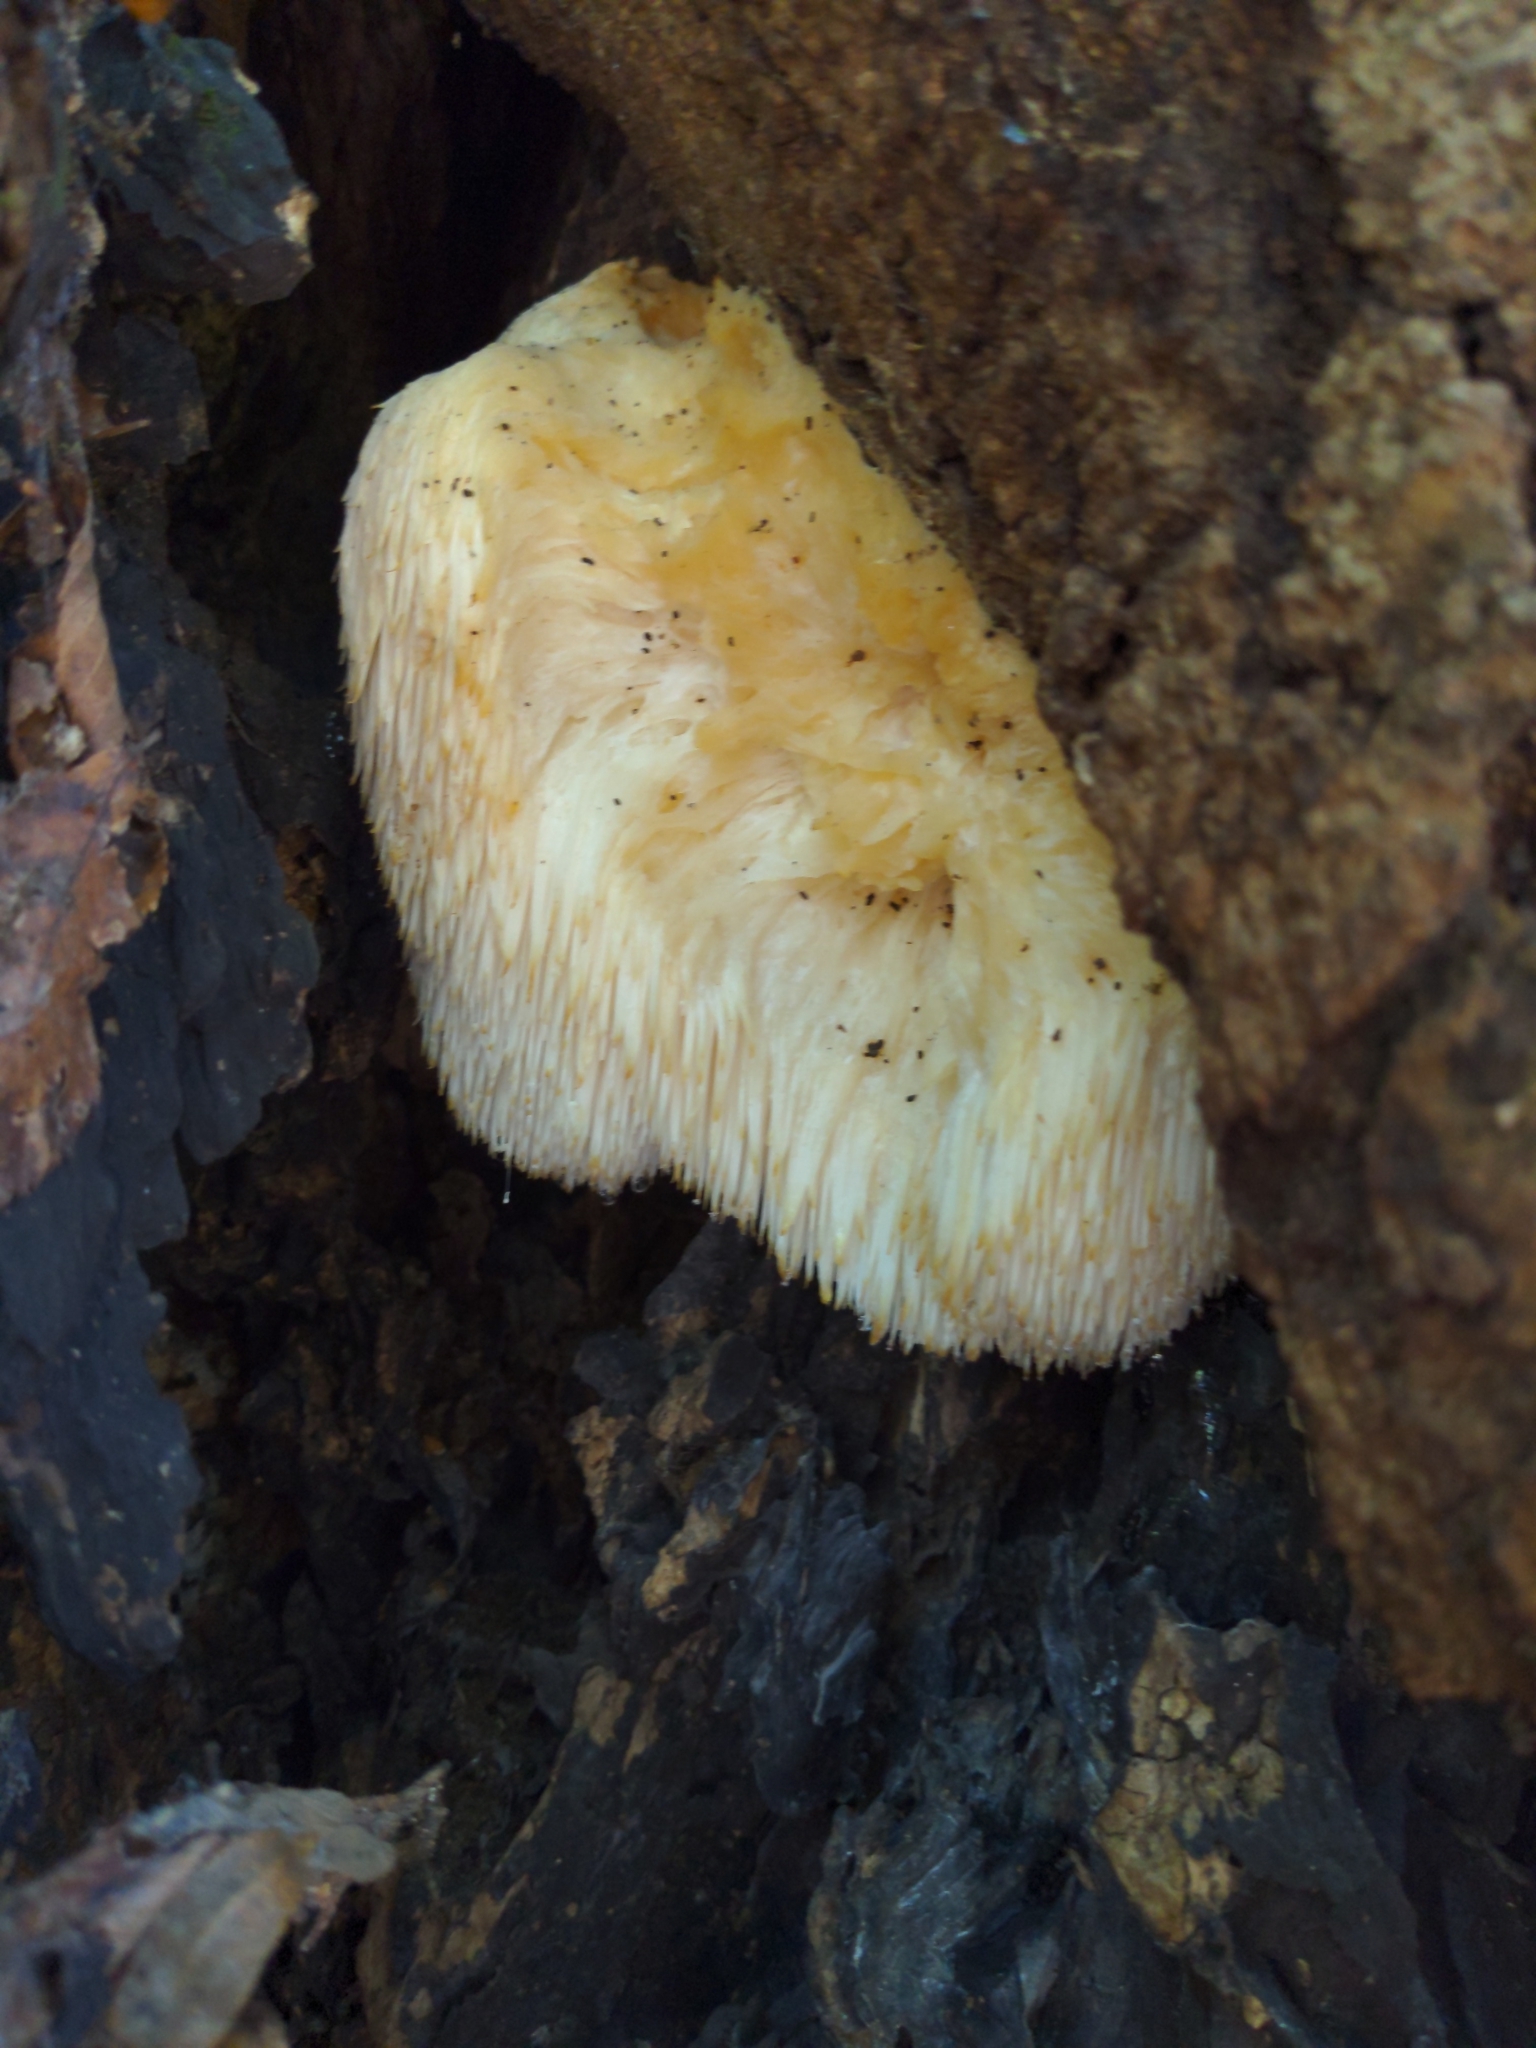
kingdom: Fungi
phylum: Basidiomycota
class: Agaricomycetes
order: Russulales
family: Hericiaceae
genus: Hericium
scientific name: Hericium erinaceus
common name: Bearded tooth
